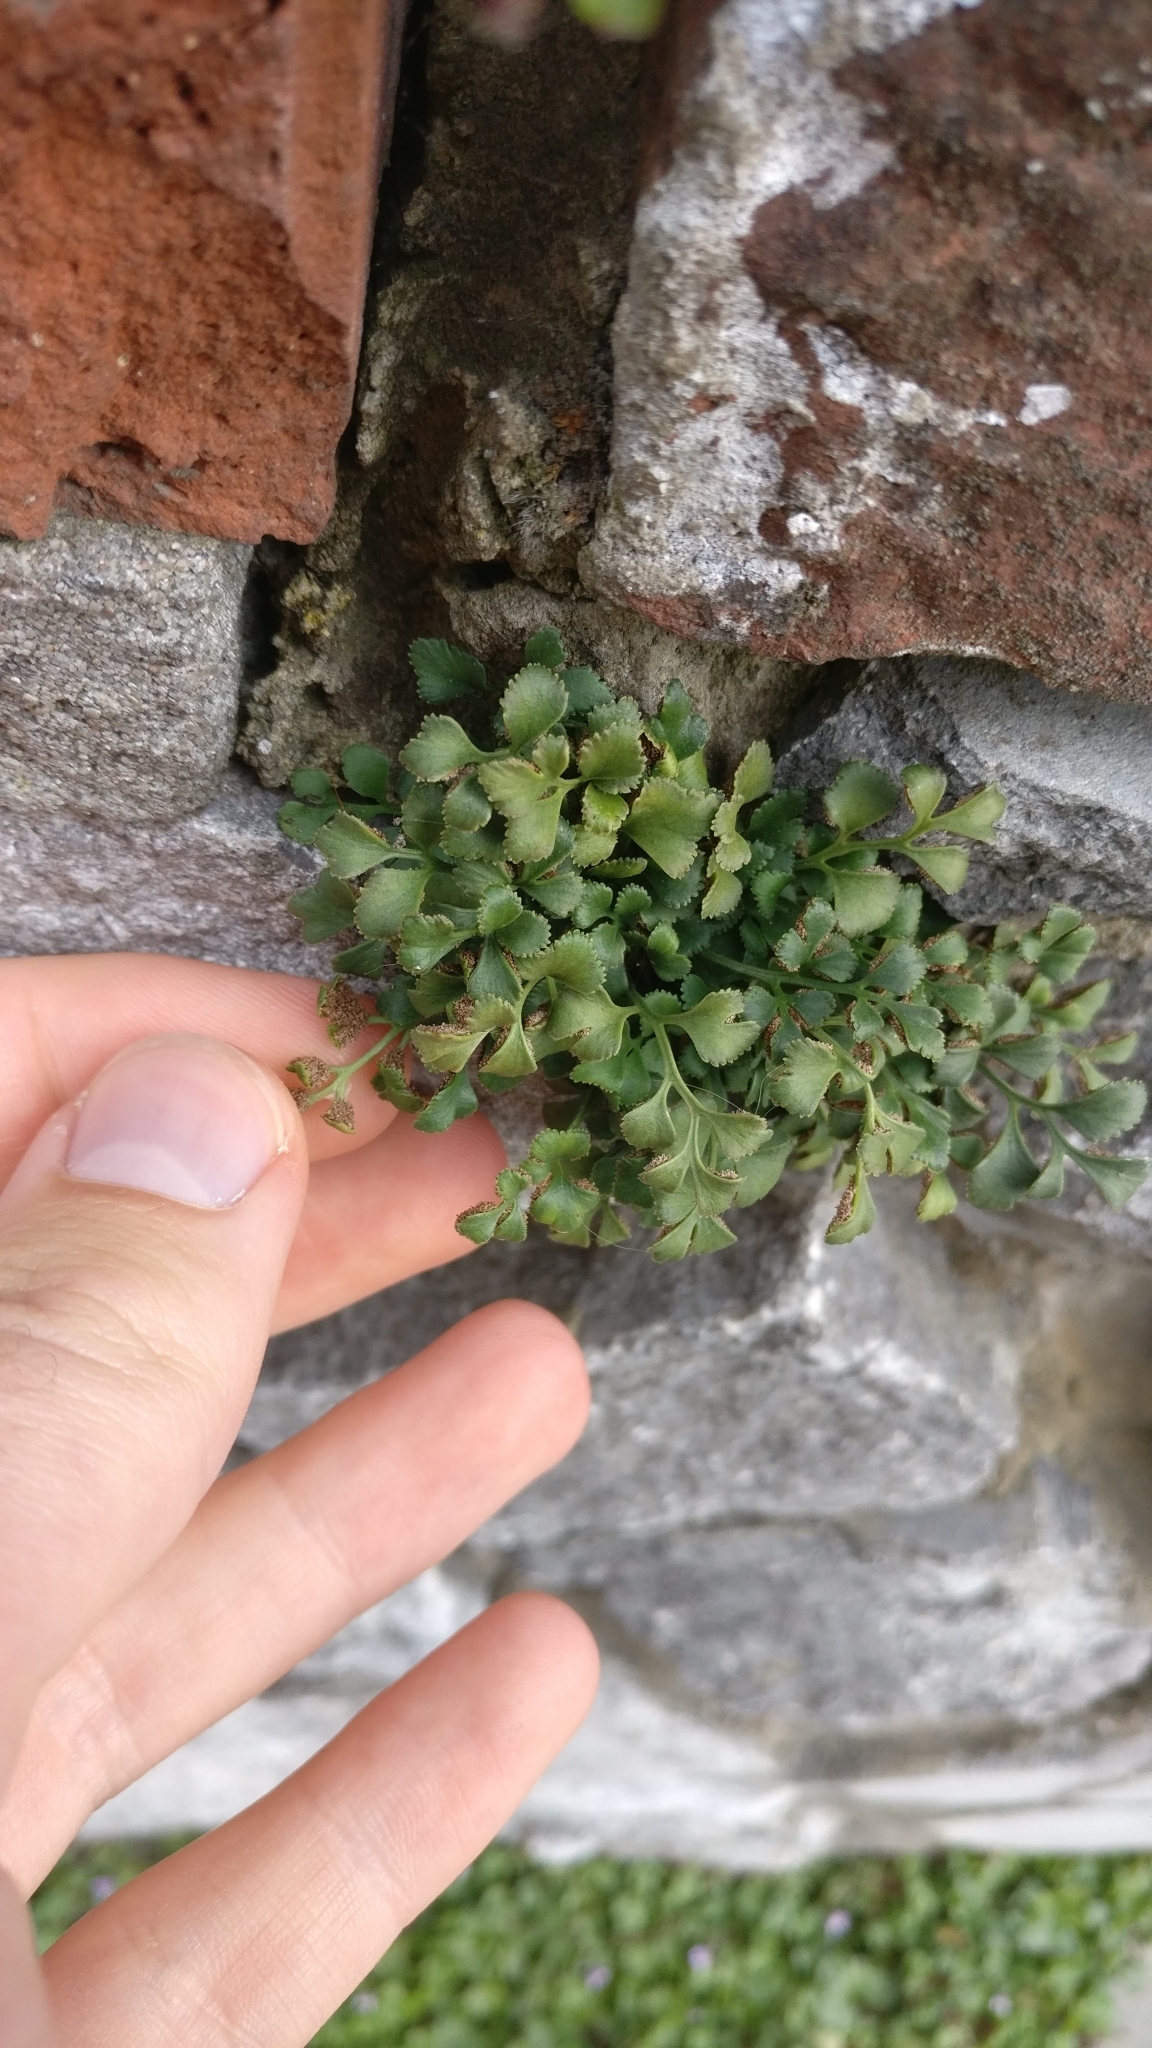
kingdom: Plantae
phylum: Tracheophyta
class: Polypodiopsida
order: Polypodiales
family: Aspleniaceae
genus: Asplenium
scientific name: Asplenium ruta-muraria
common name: Wall-rue
